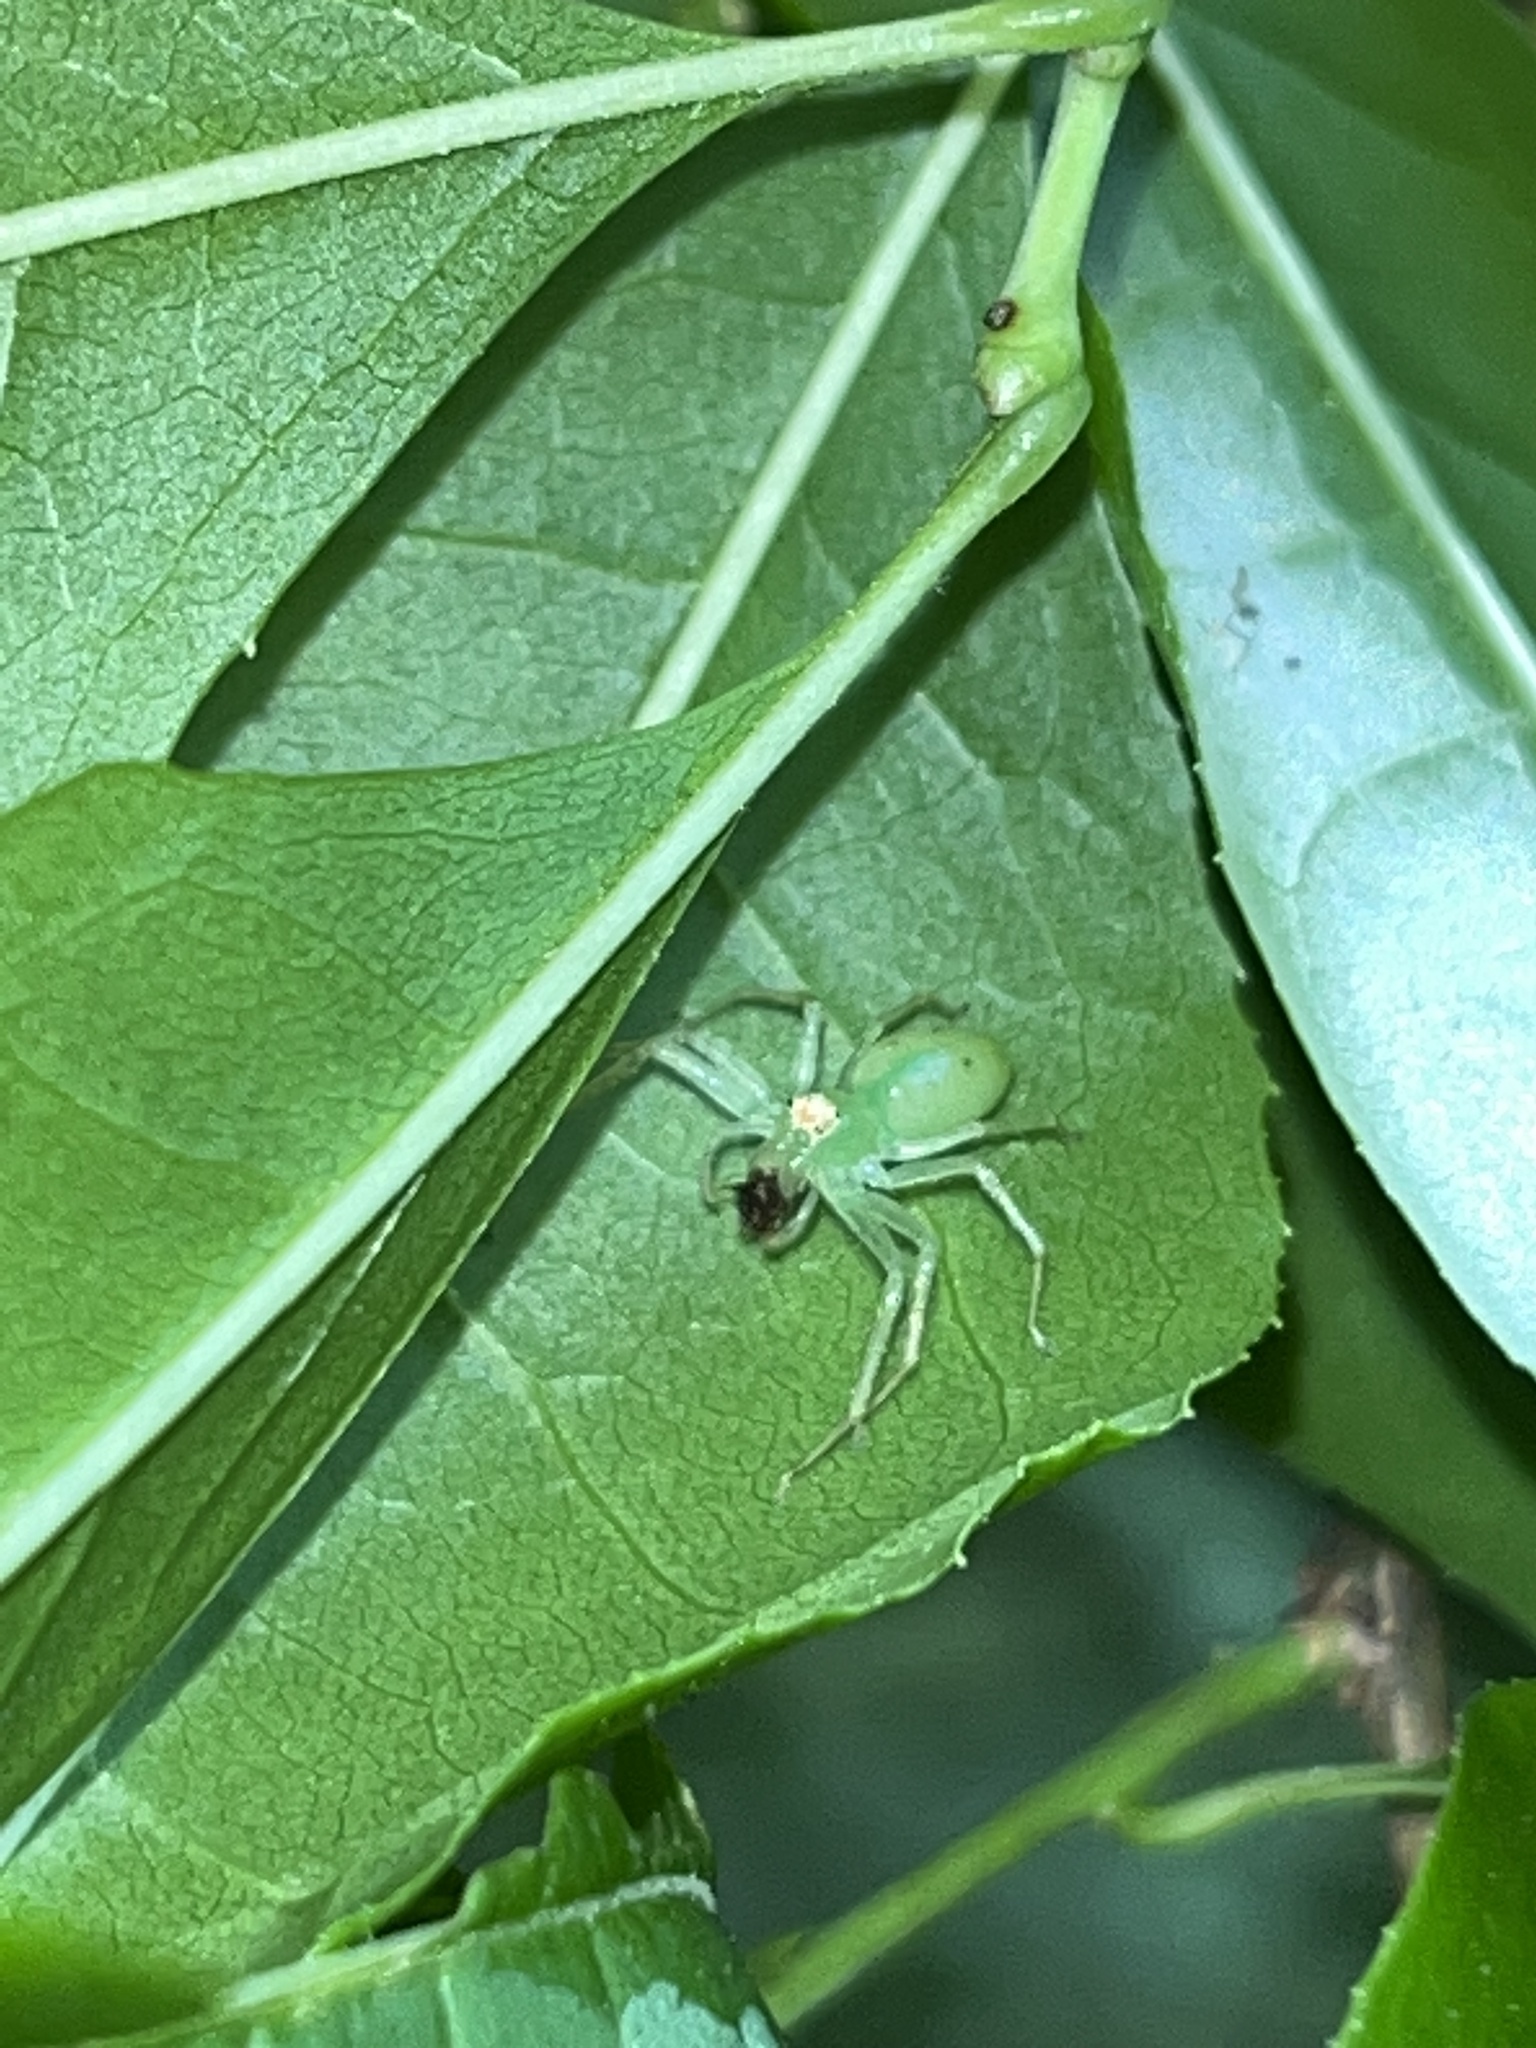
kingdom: Animalia
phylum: Arthropoda
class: Arachnida
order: Araneae
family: Salticidae
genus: Lyssomanes
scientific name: Lyssomanes viridis
